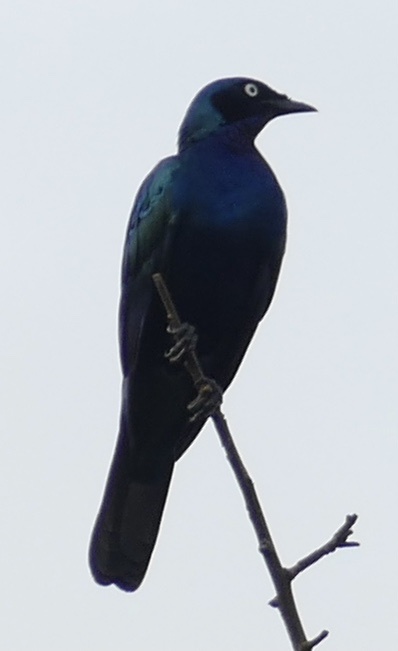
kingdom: Animalia
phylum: Chordata
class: Aves
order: Passeriformes
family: Sturnidae
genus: Lamprotornis
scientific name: Lamprotornis splendidus
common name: Splendid starling
